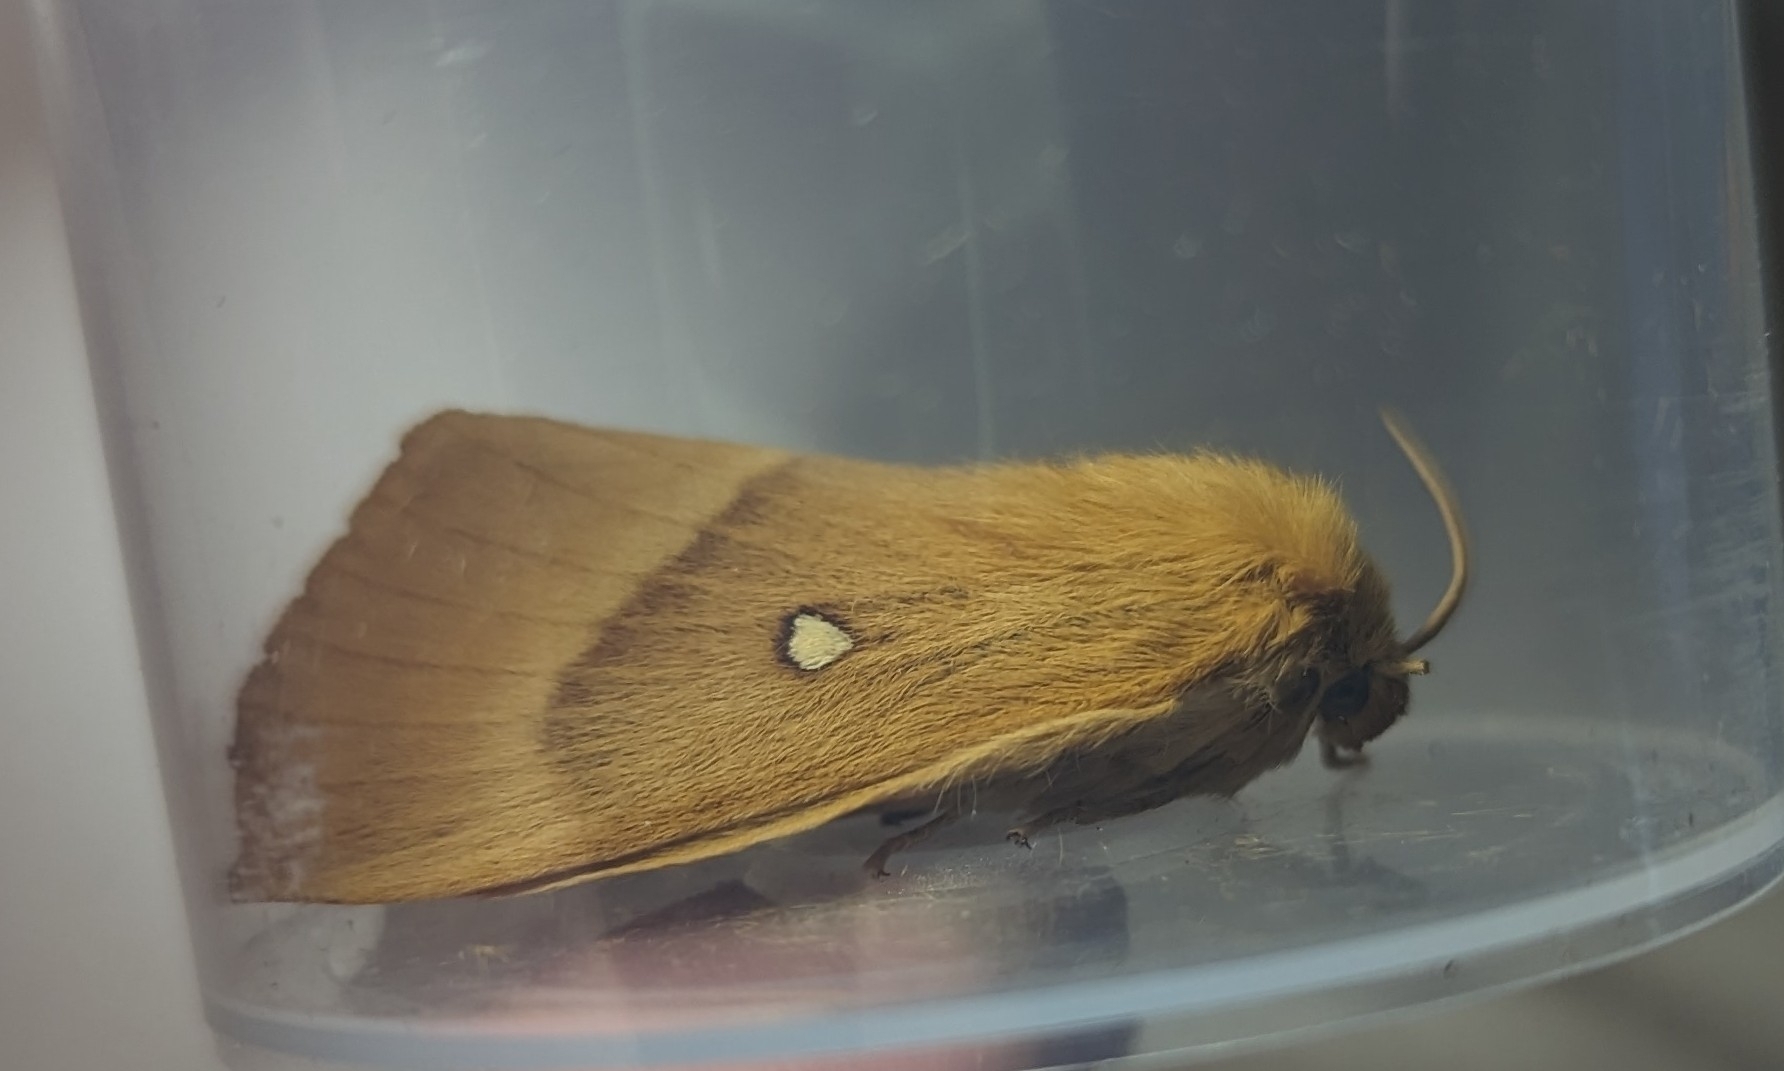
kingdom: Animalia
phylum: Arthropoda
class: Insecta
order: Lepidoptera
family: Lasiocampidae
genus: Lasiocampa
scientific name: Lasiocampa quercus
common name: Oak eggar
